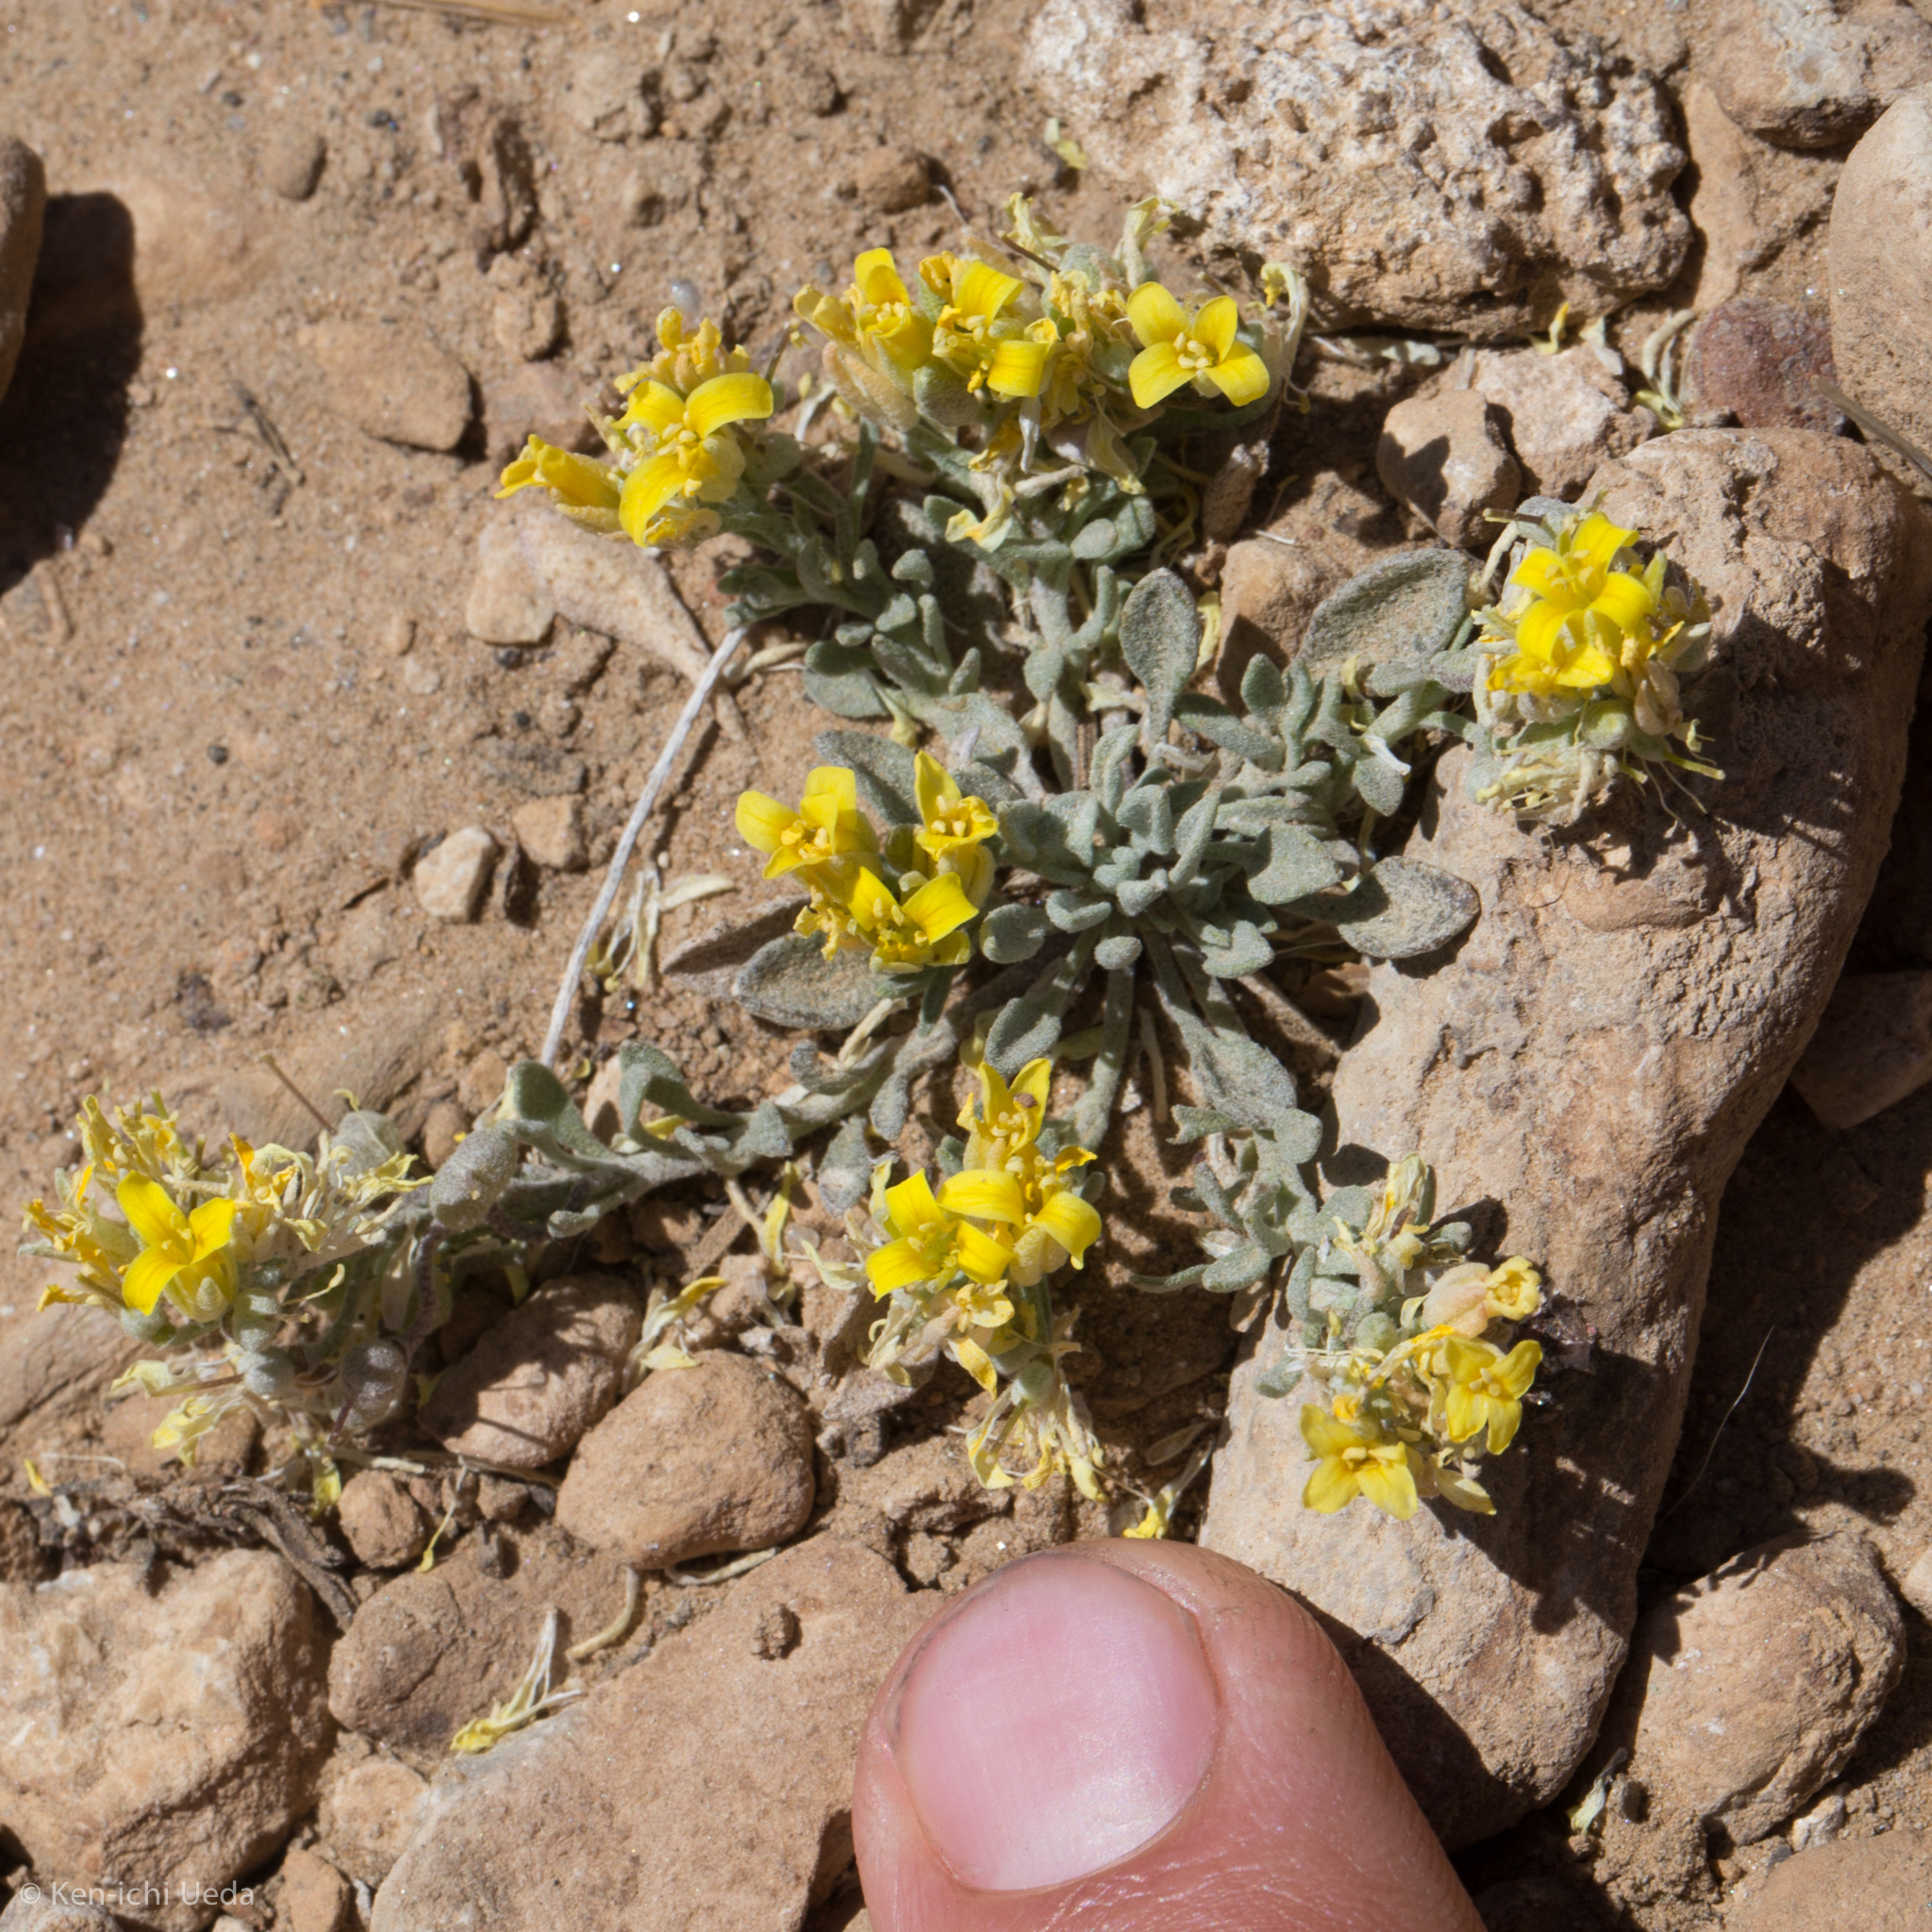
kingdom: Plantae
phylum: Tracheophyta
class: Magnoliopsida
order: Brassicales
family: Brassicaceae
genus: Physaria
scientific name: Physaria kingii
